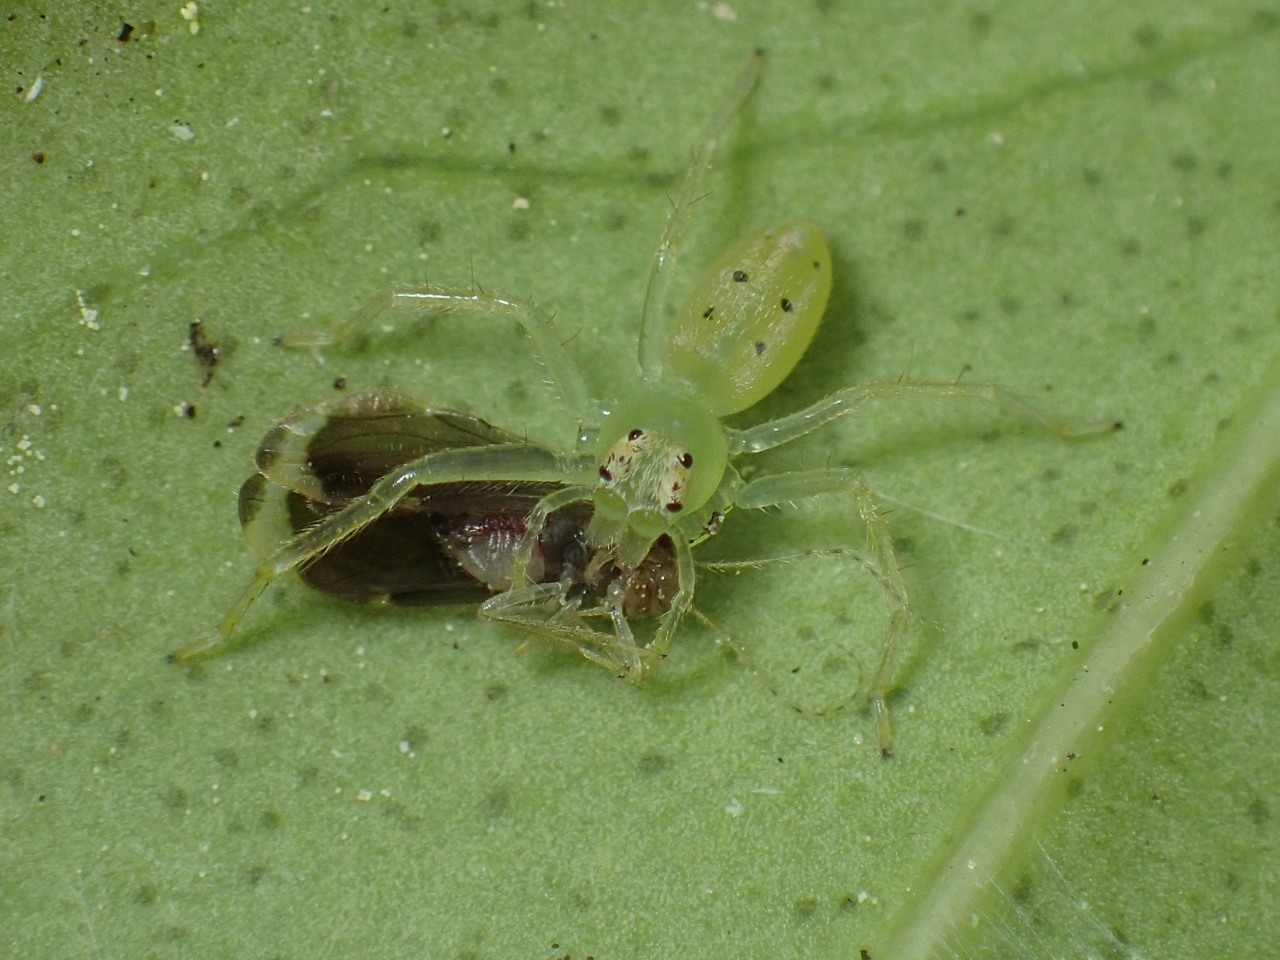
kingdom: Animalia
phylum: Arthropoda
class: Arachnida
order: Araneae
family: Salticidae
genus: Lyssomanes
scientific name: Lyssomanes viridis
